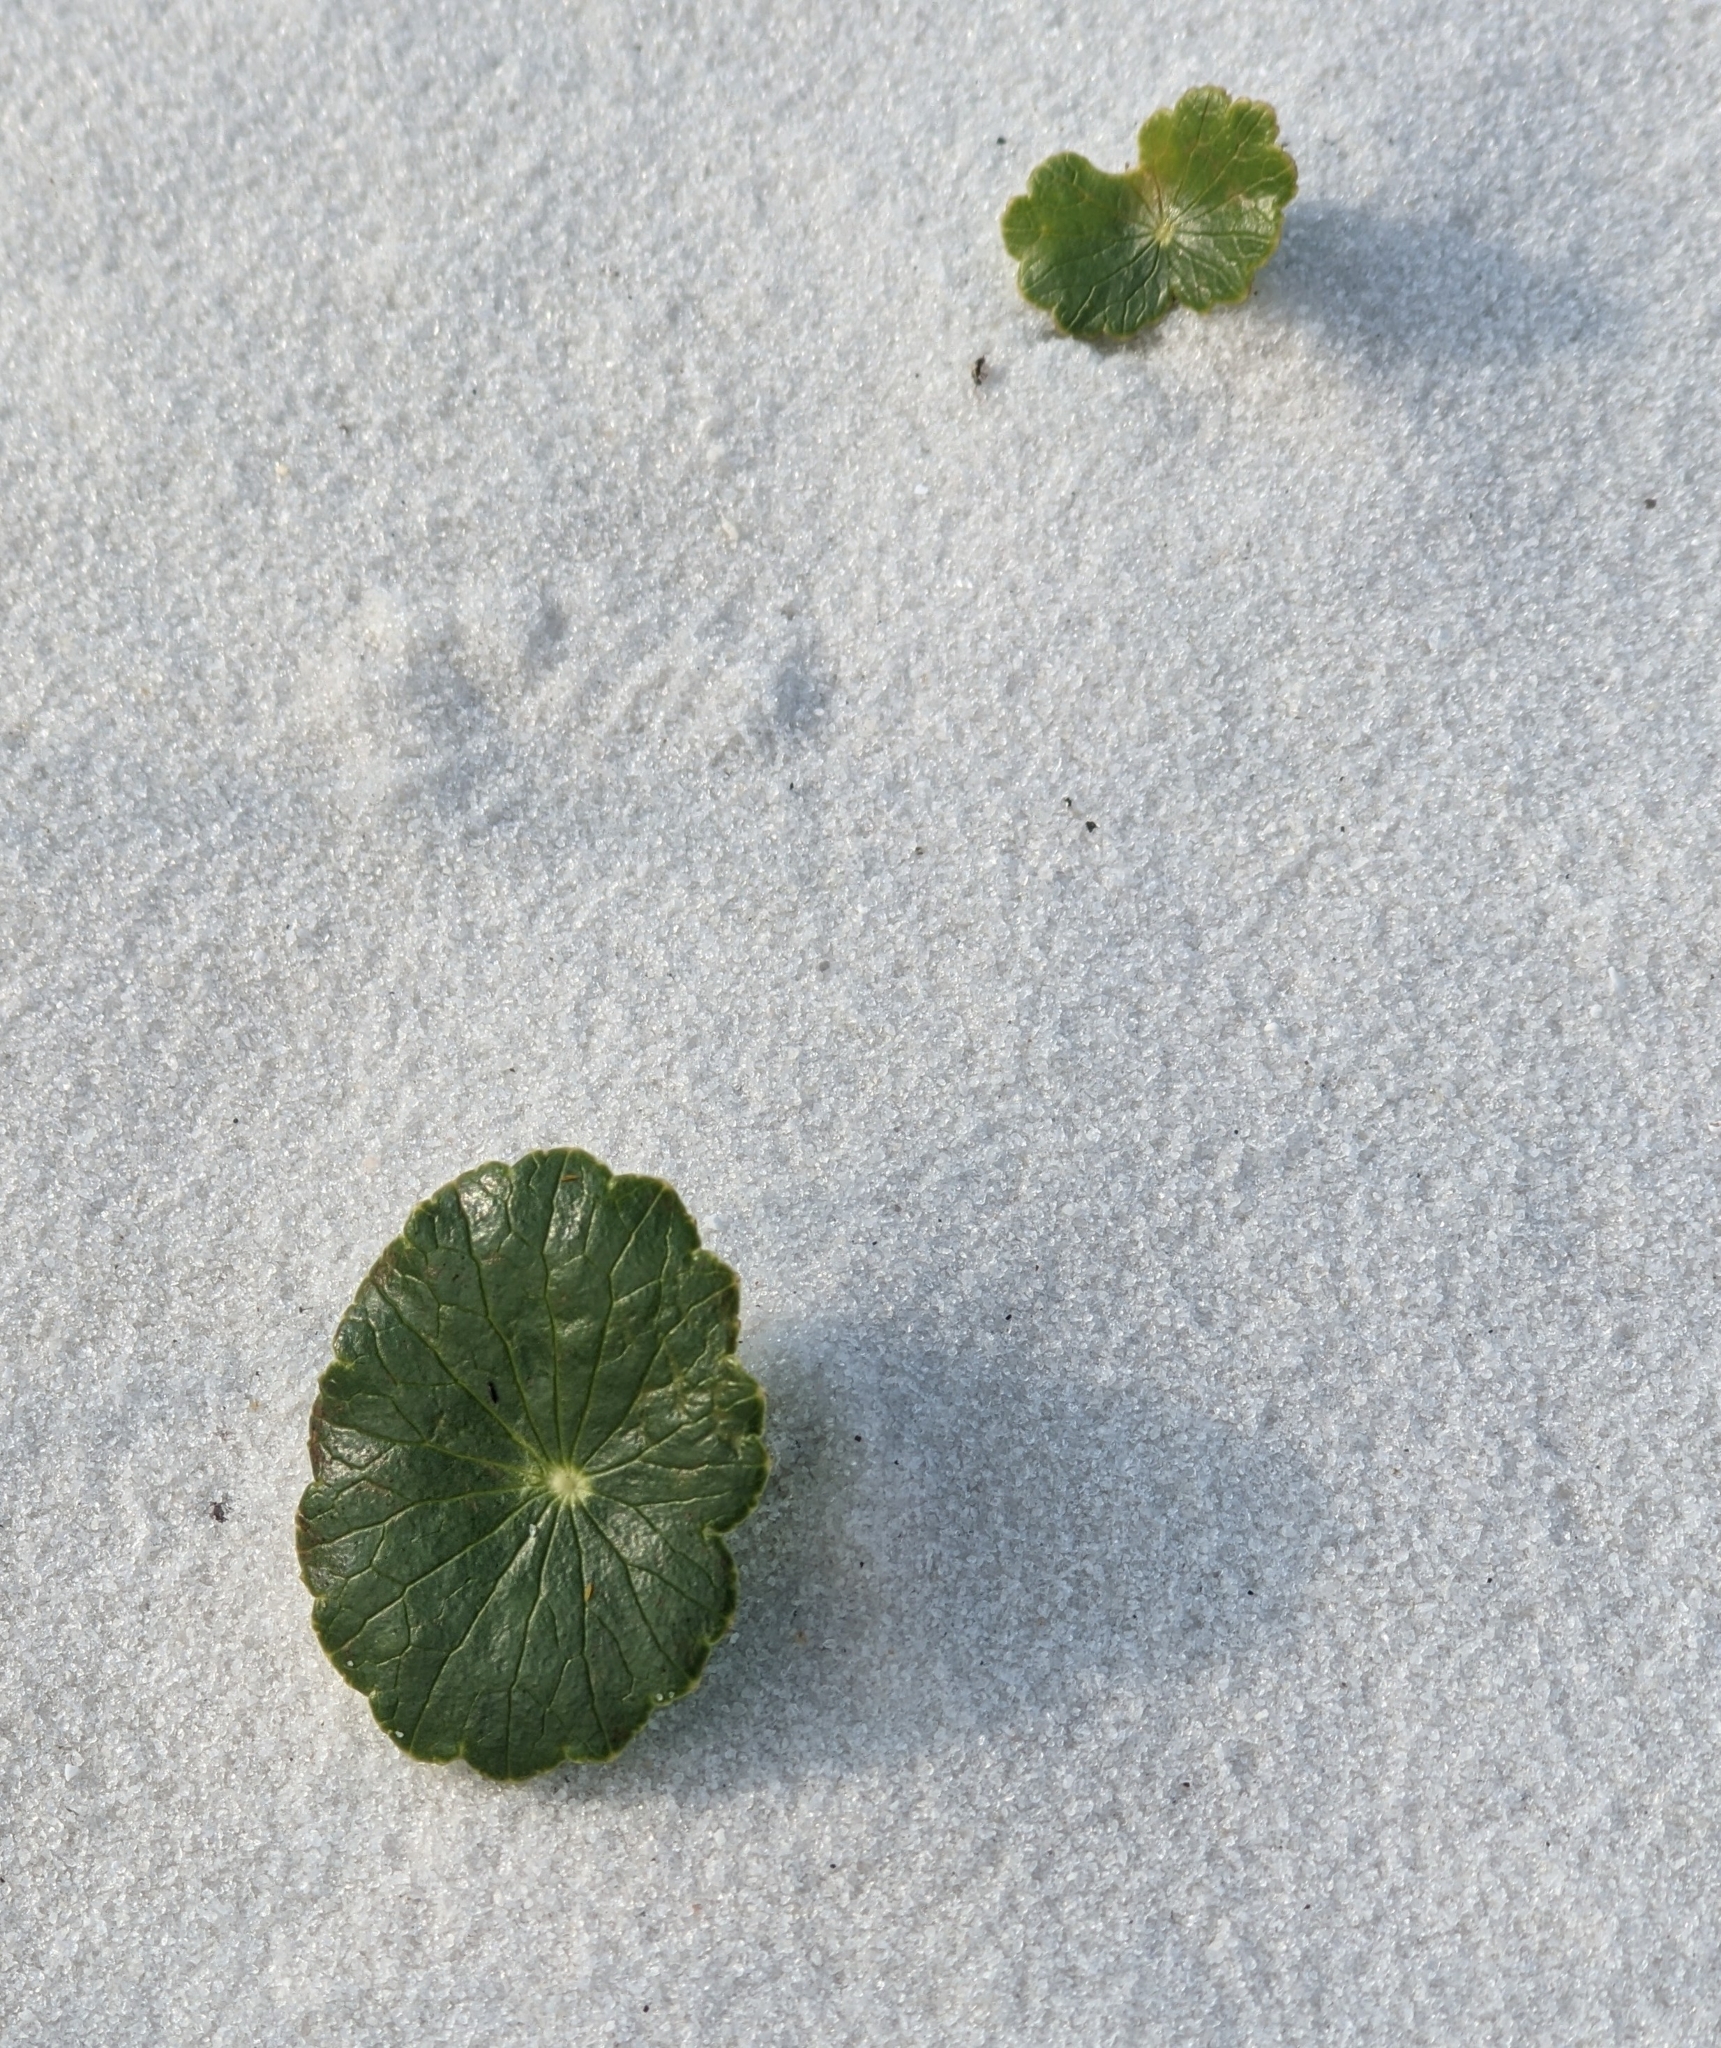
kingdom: Plantae
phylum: Tracheophyta
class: Magnoliopsida
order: Apiales
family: Araliaceae
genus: Hydrocotyle
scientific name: Hydrocotyle bonariensis
